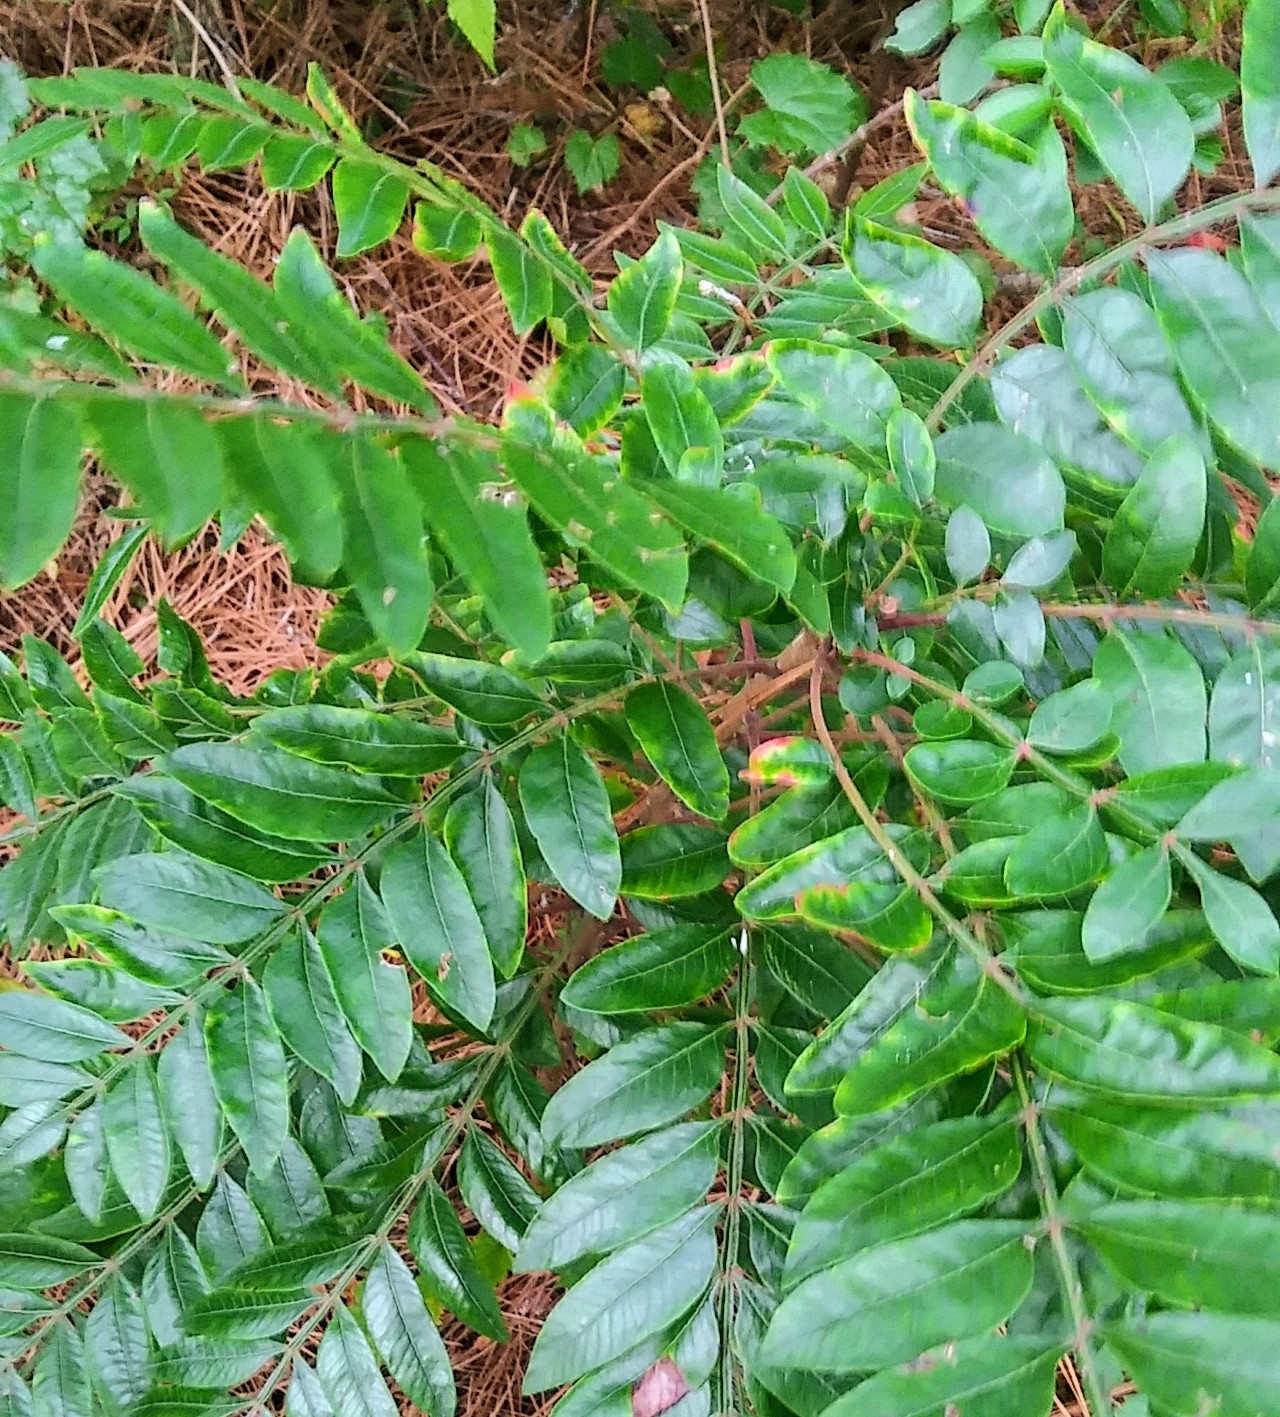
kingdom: Plantae
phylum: Tracheophyta
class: Magnoliopsida
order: Sapindales
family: Anacardiaceae
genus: Rhus
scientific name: Rhus copallina
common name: Shining sumac
